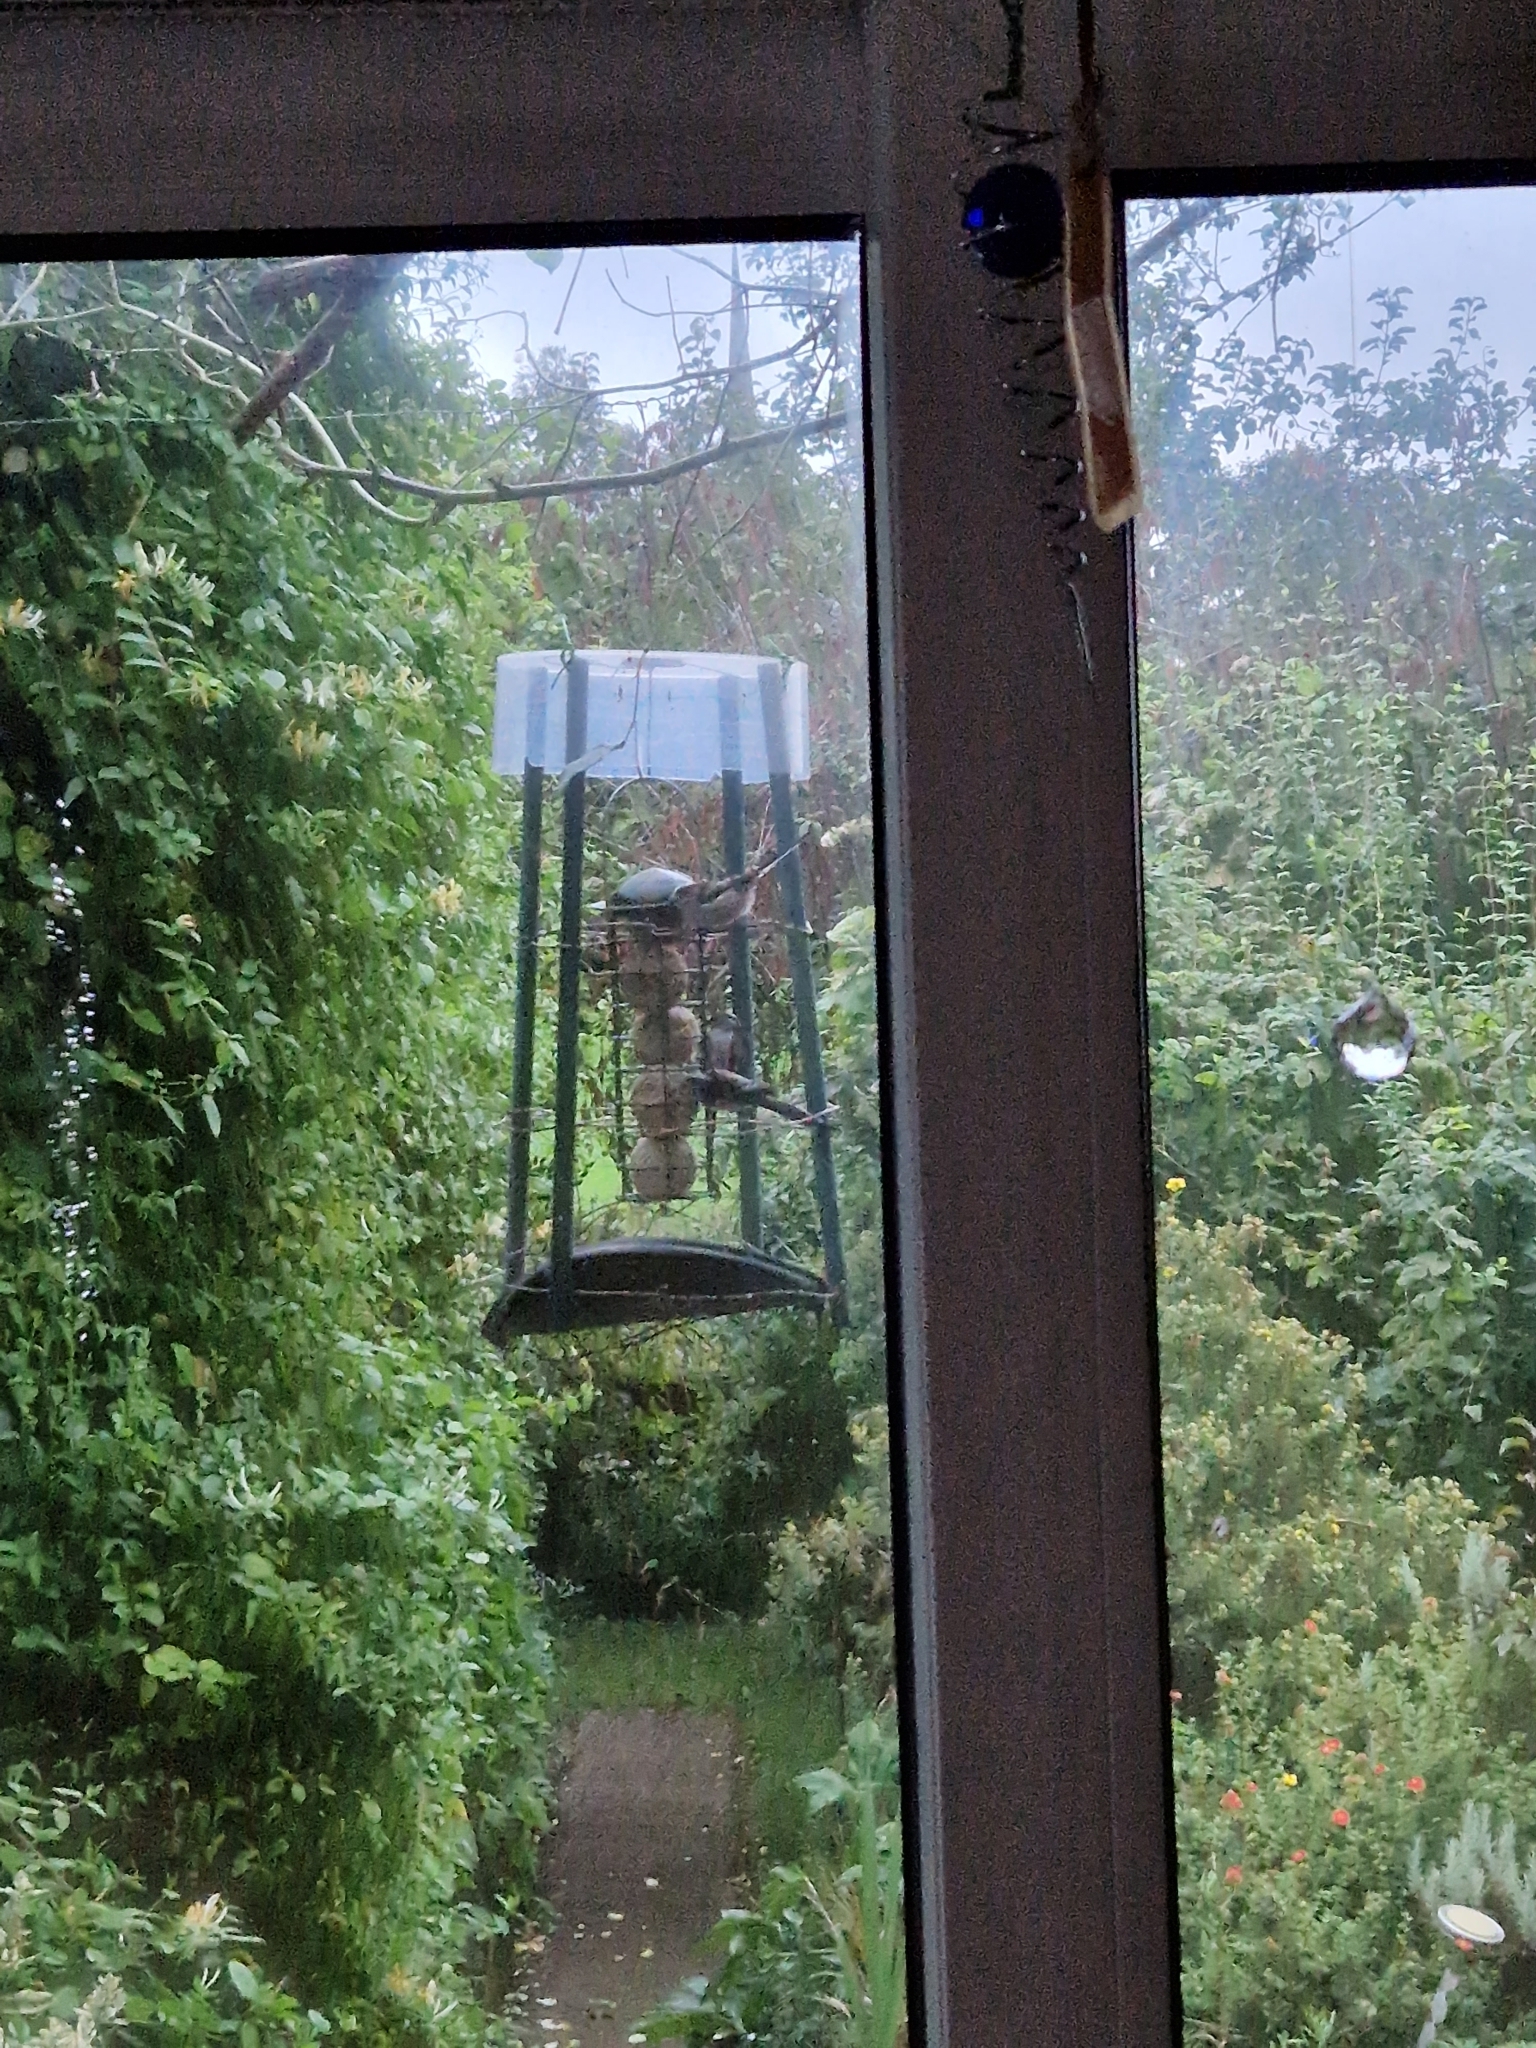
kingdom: Animalia
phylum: Chordata
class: Aves
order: Passeriformes
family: Aegithalidae
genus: Aegithalos
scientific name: Aegithalos caudatus
